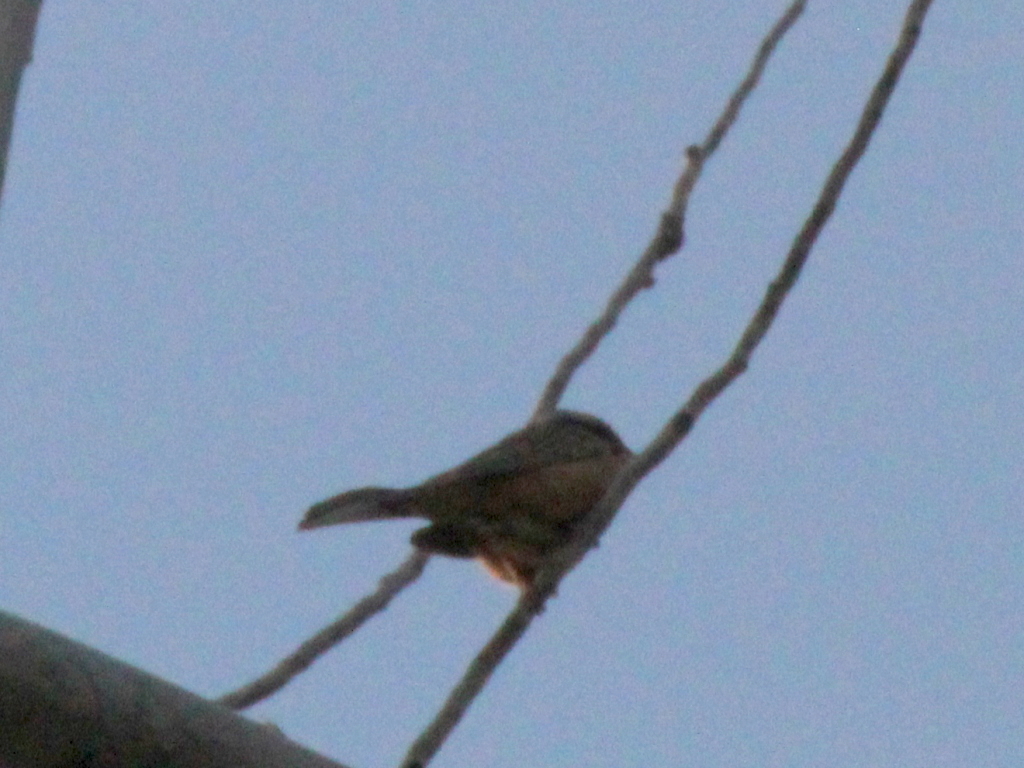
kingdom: Animalia
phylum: Chordata
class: Aves
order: Passeriformes
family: Emberizidae
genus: Emberiza
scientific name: Emberiza cia
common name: Rock bunting
